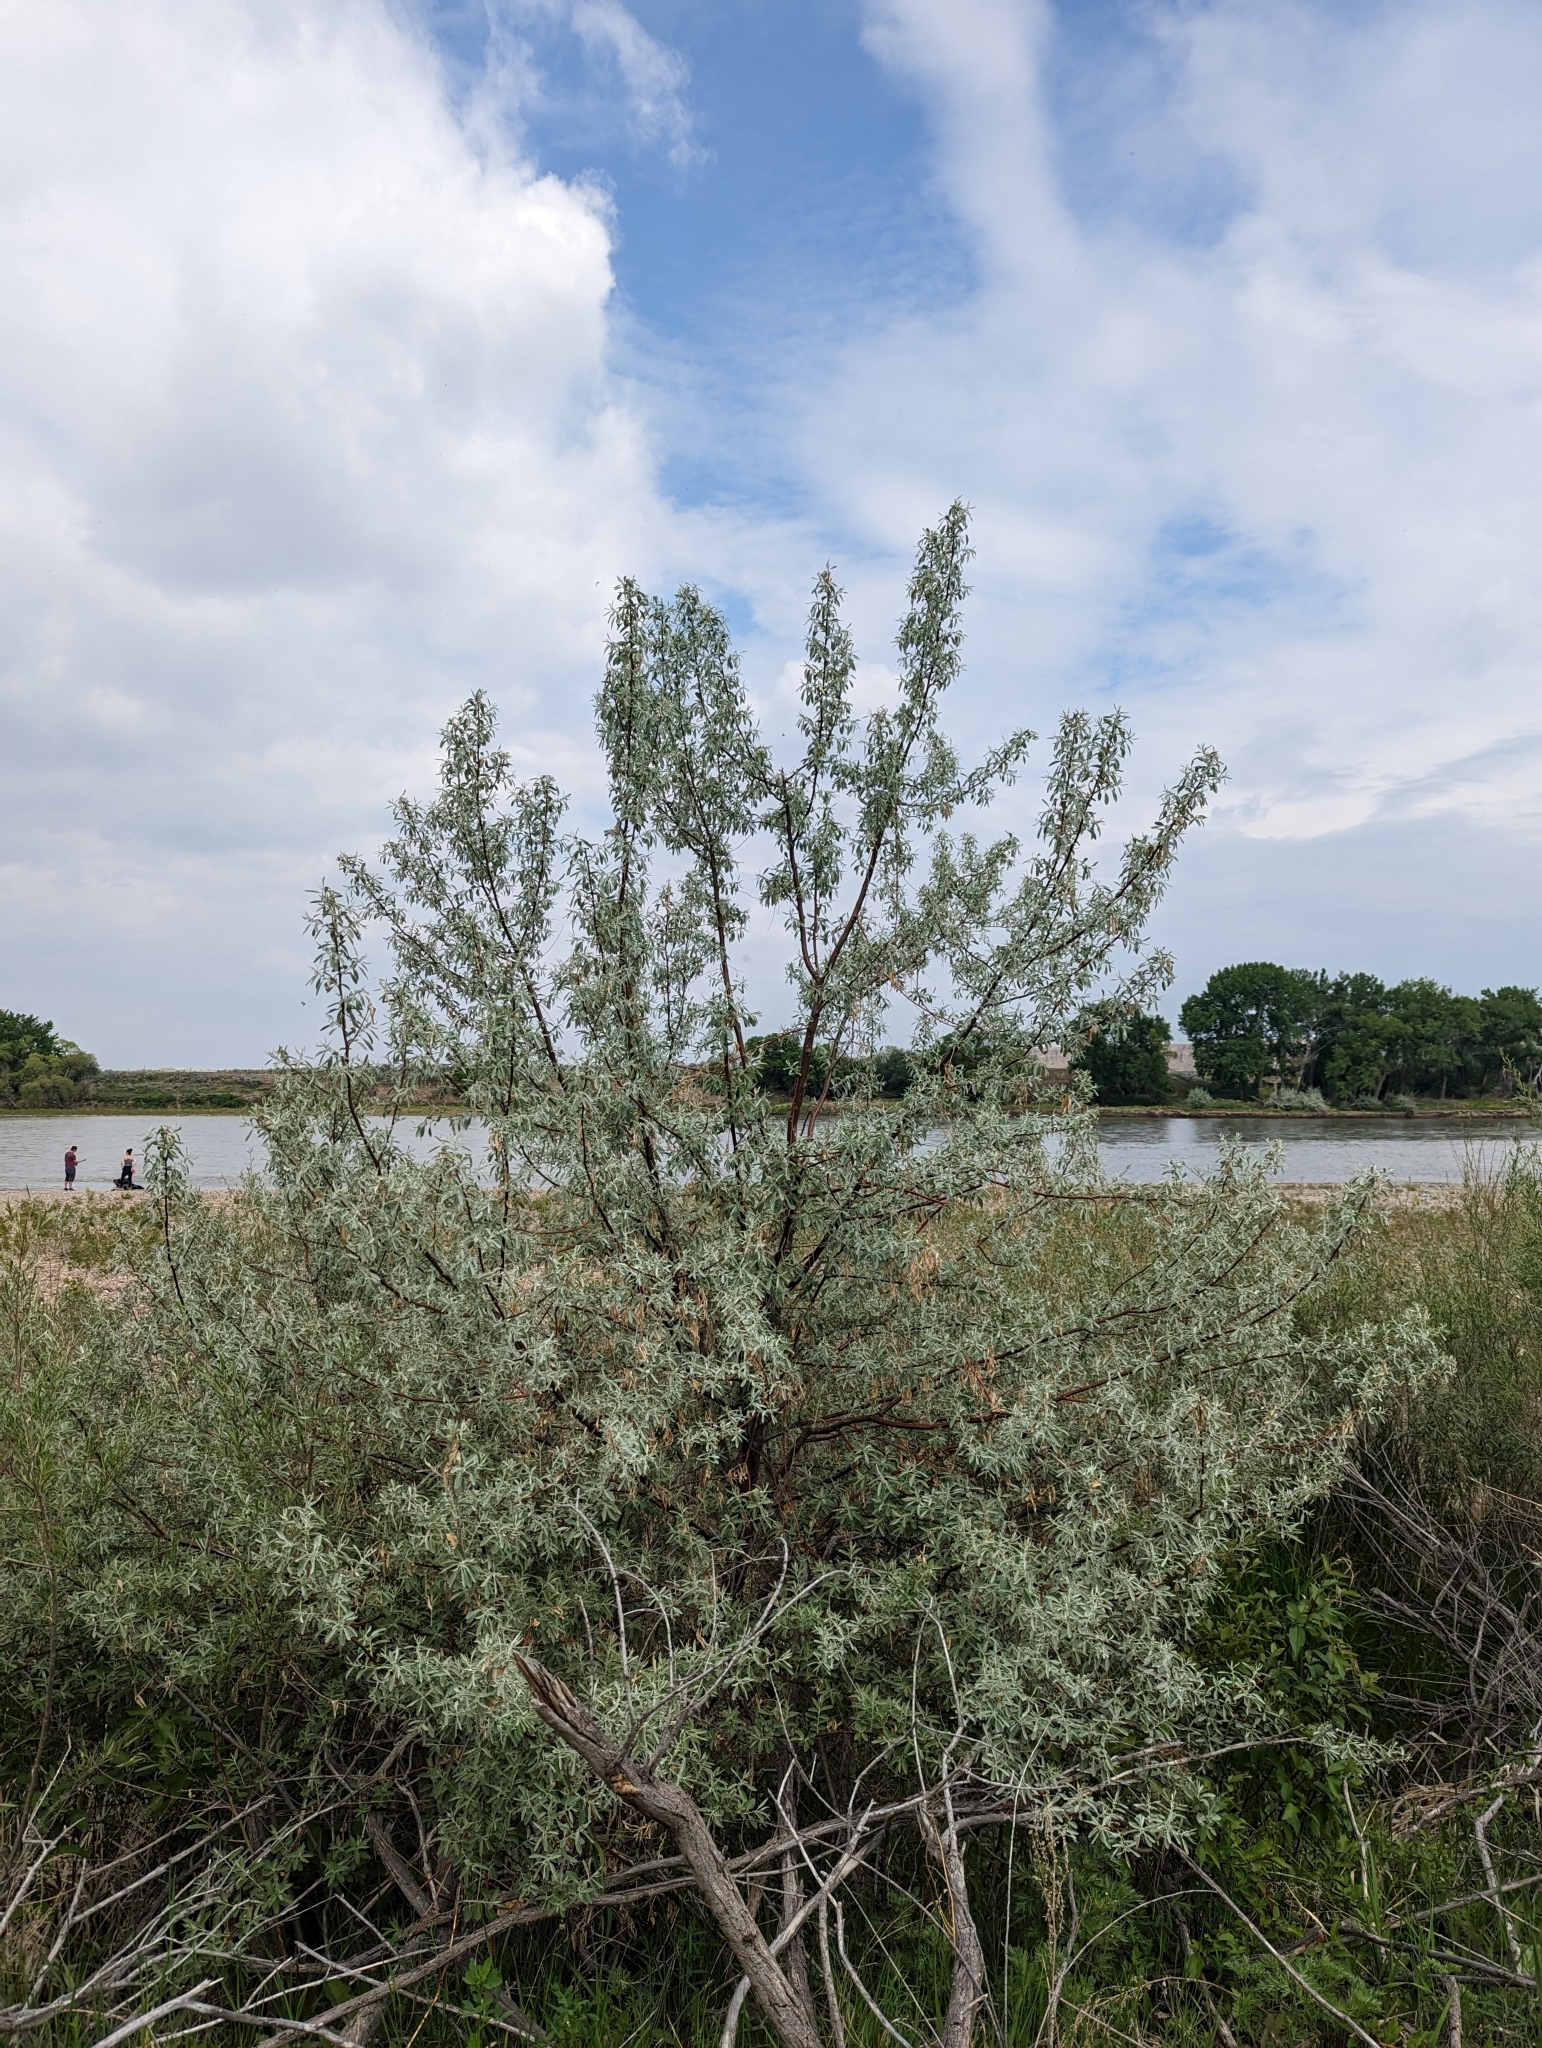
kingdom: Plantae
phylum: Tracheophyta
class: Magnoliopsida
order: Rosales
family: Elaeagnaceae
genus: Elaeagnus
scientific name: Elaeagnus angustifolia
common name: Russian olive
